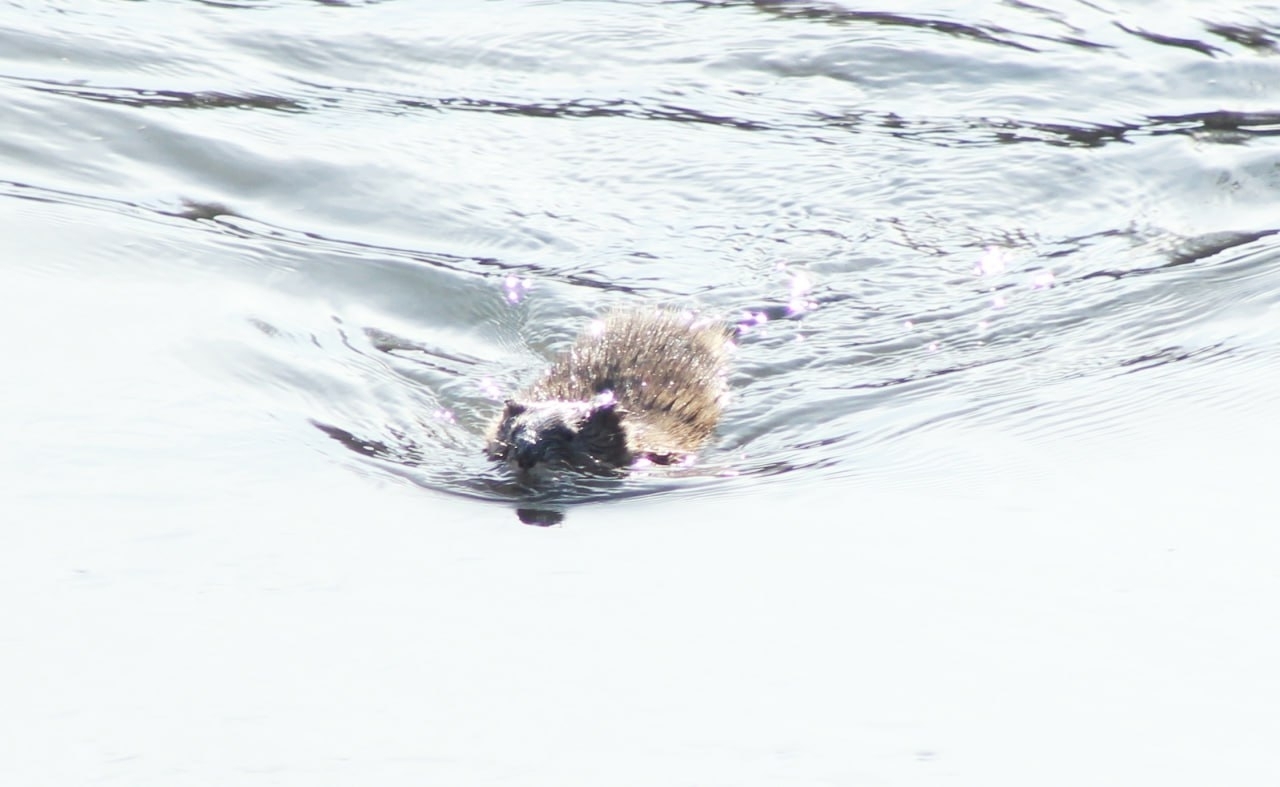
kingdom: Animalia
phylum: Chordata
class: Mammalia
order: Rodentia
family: Cricetidae
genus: Ondatra
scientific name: Ondatra zibethicus
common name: Muskrat
